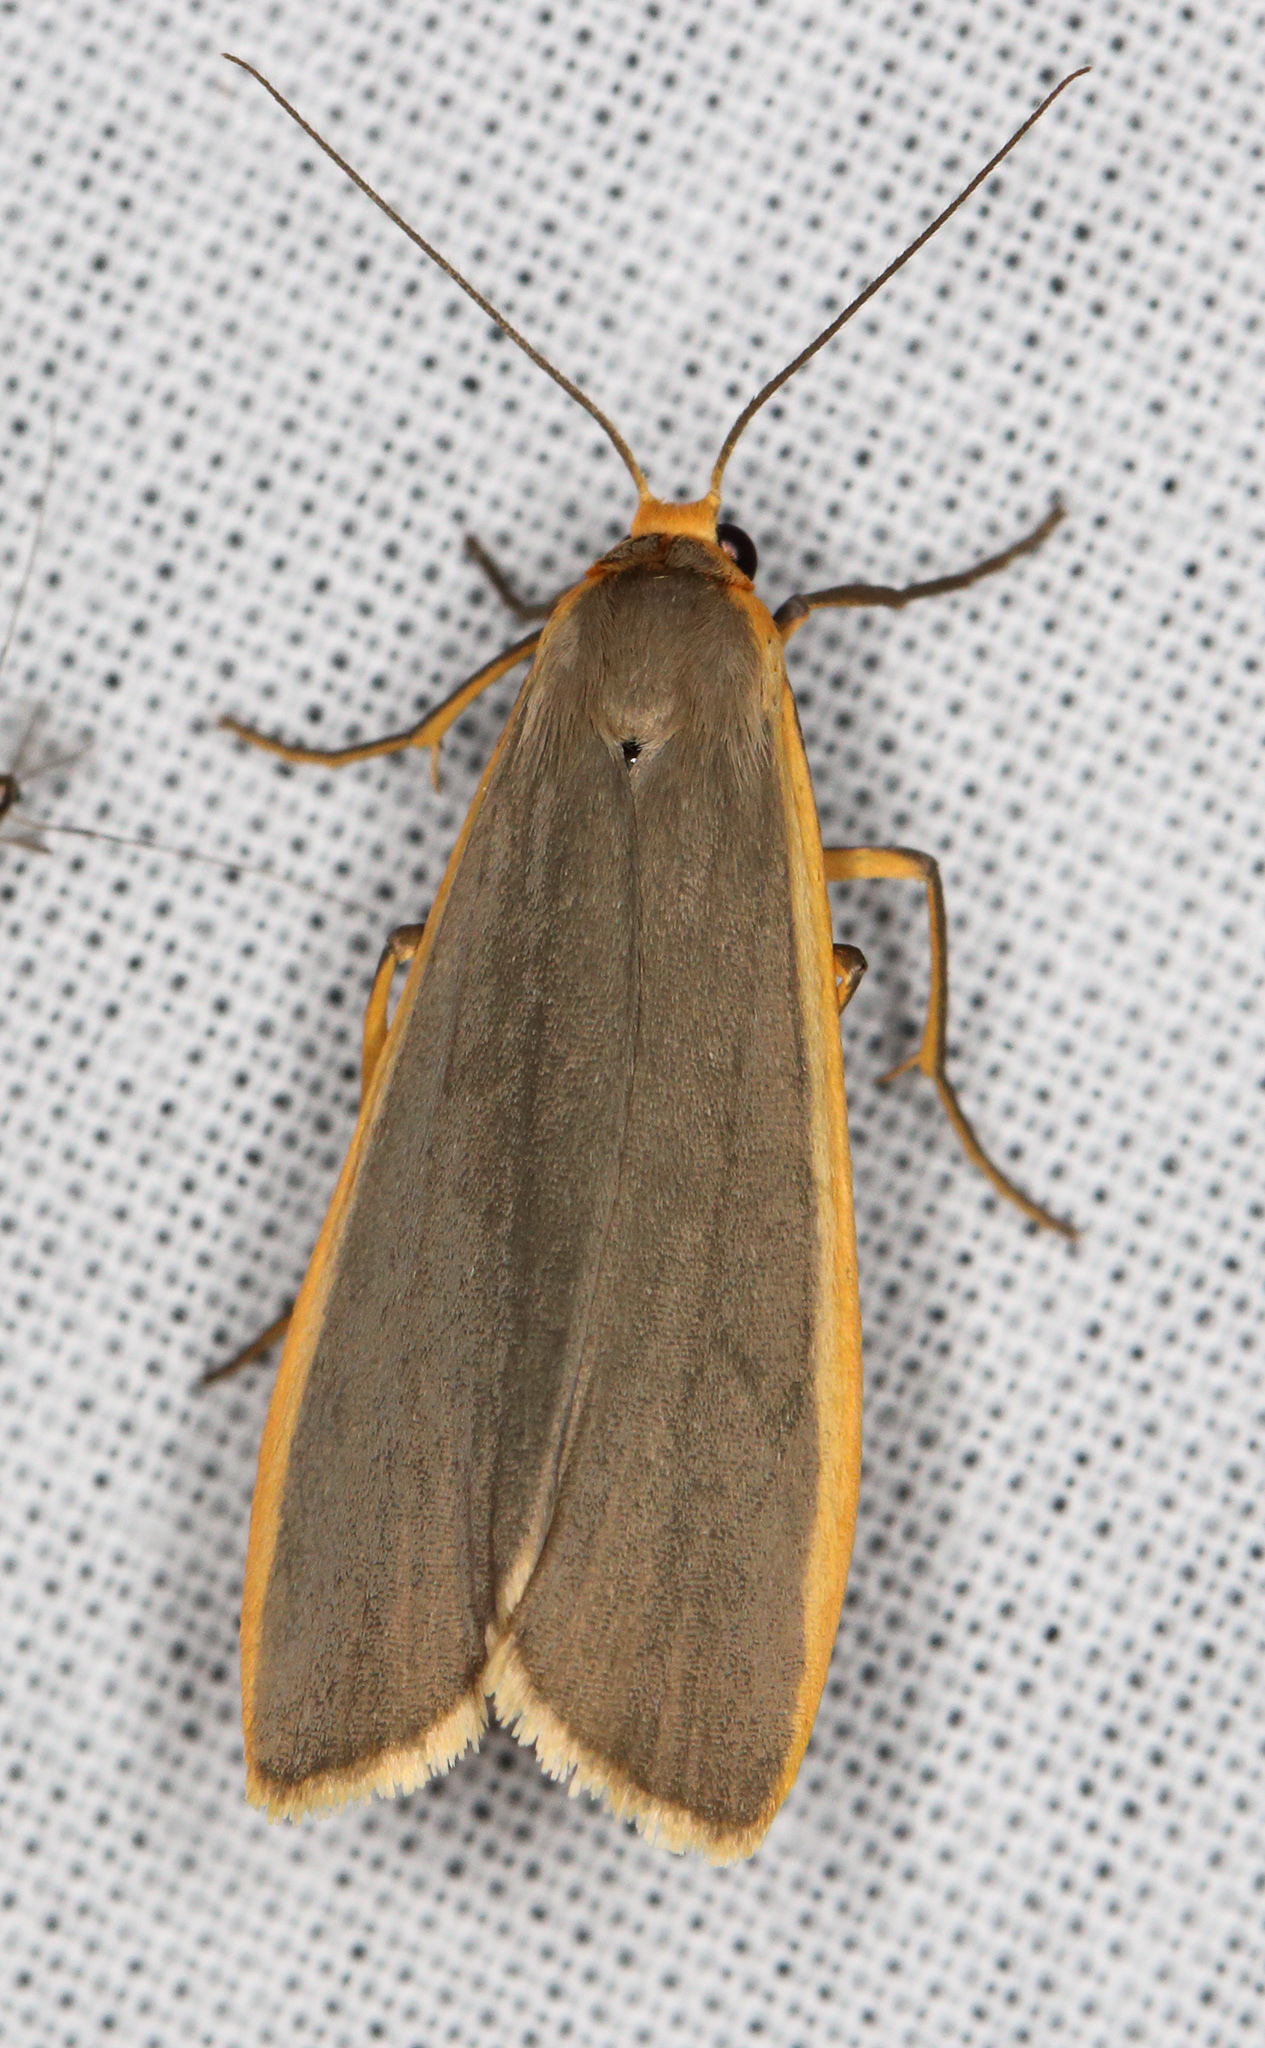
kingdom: Animalia
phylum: Arthropoda
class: Insecta
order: Lepidoptera
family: Erebidae
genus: Nyea
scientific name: Nyea lurideola
